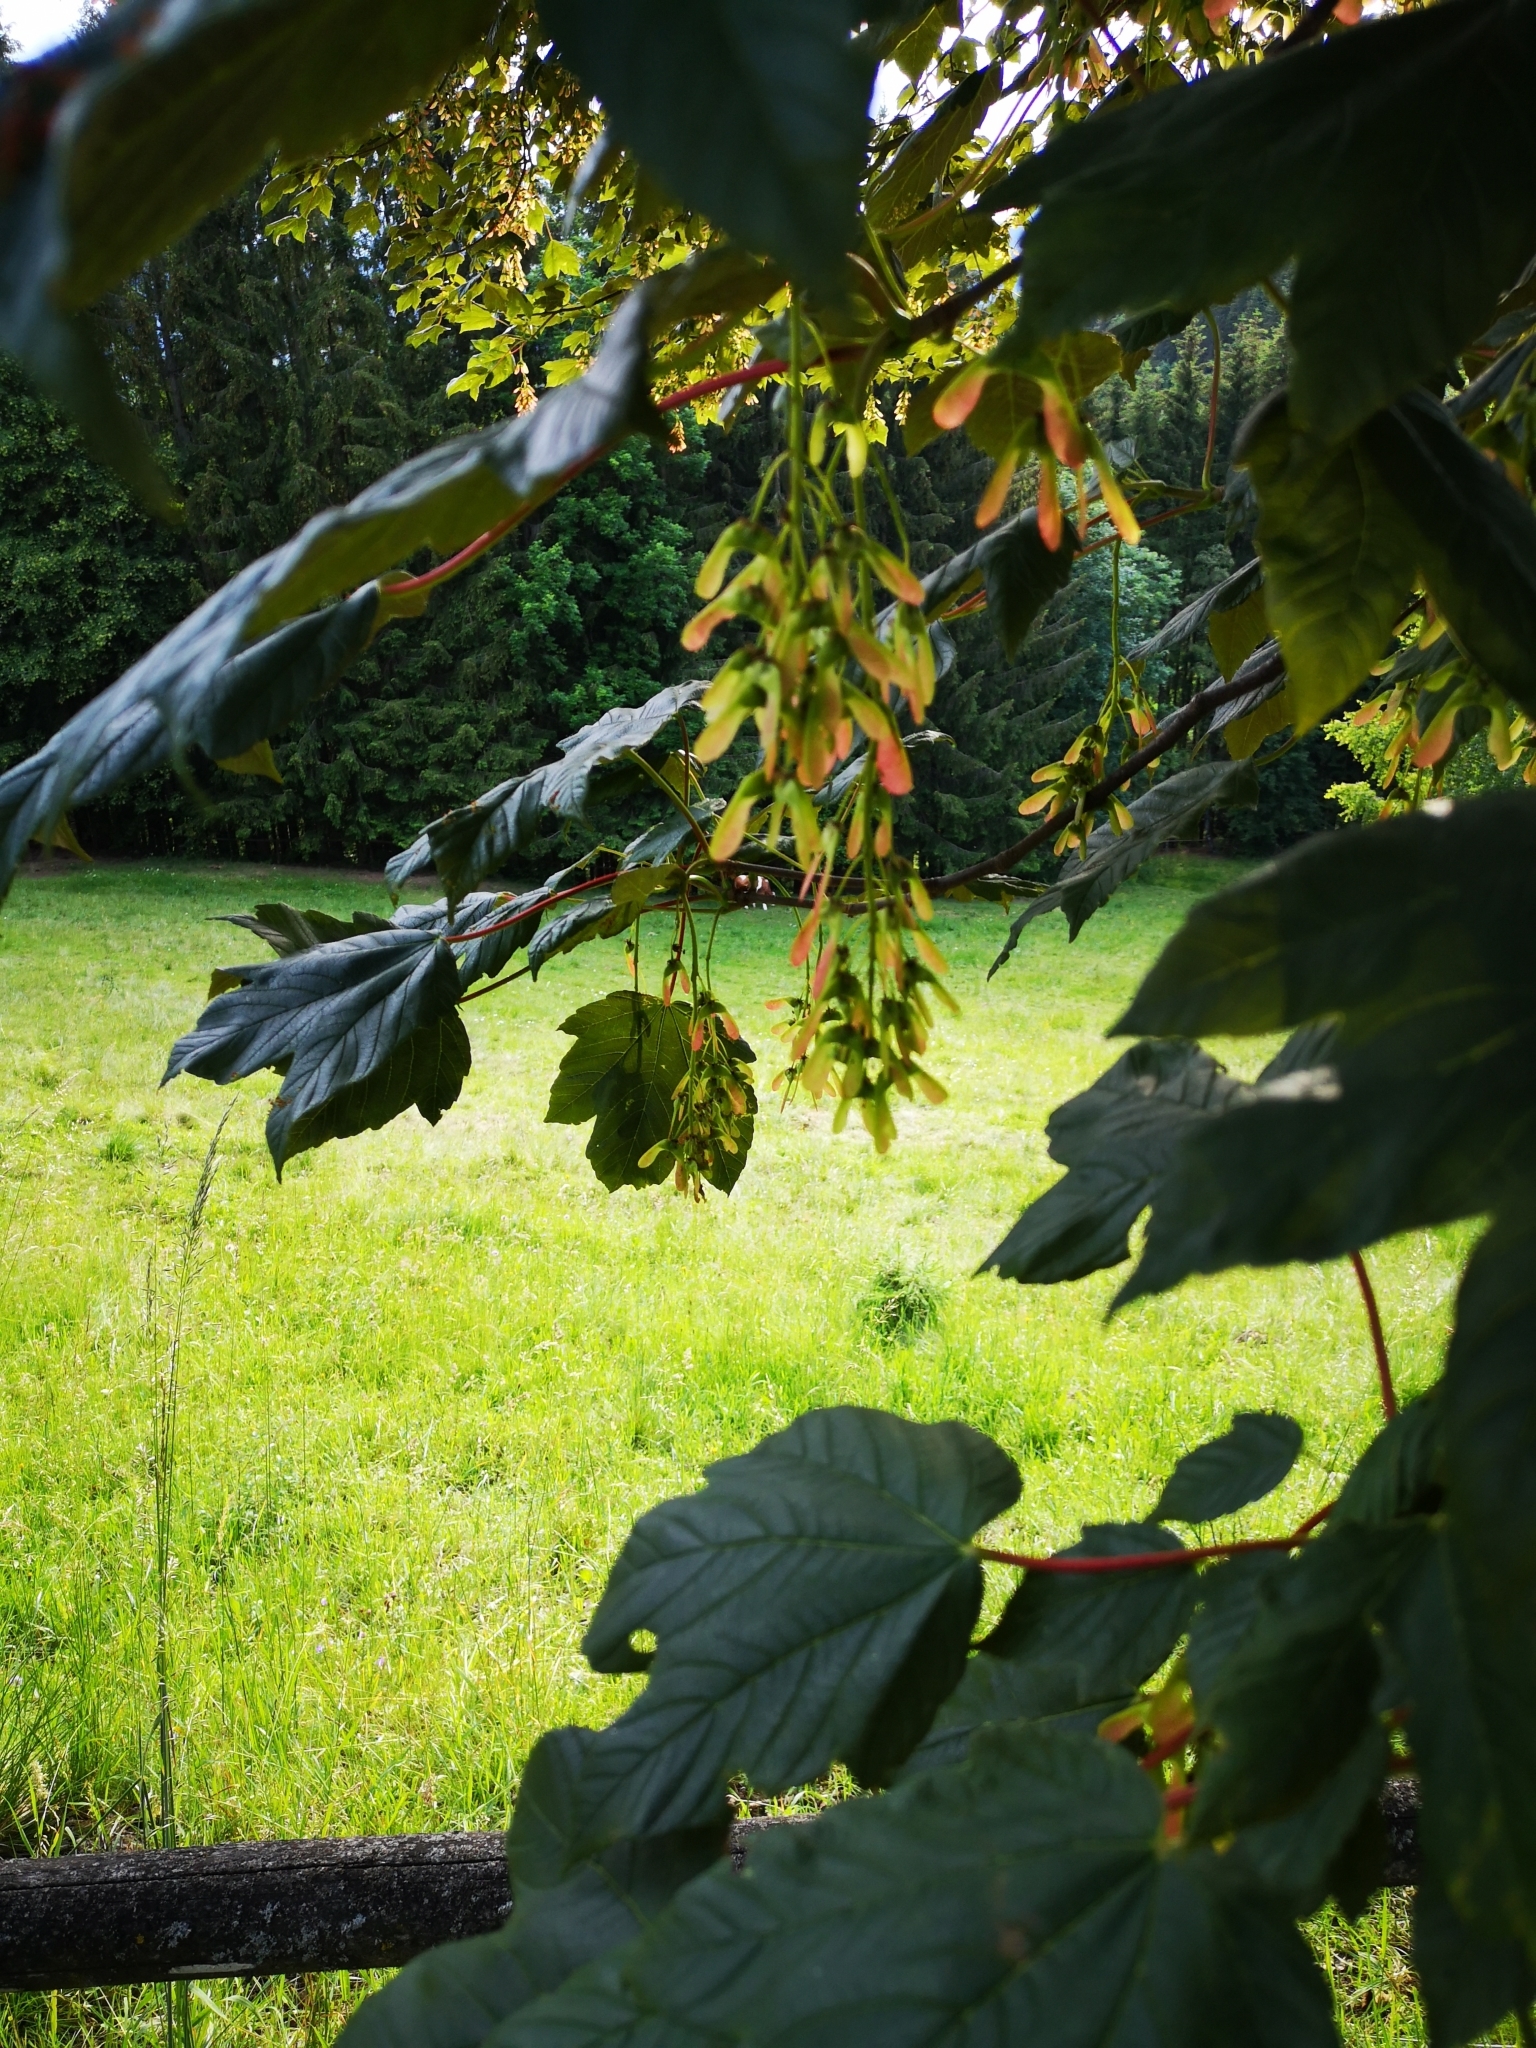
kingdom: Plantae
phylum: Tracheophyta
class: Magnoliopsida
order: Sapindales
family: Sapindaceae
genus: Acer
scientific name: Acer pseudoplatanus
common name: Sycamore
